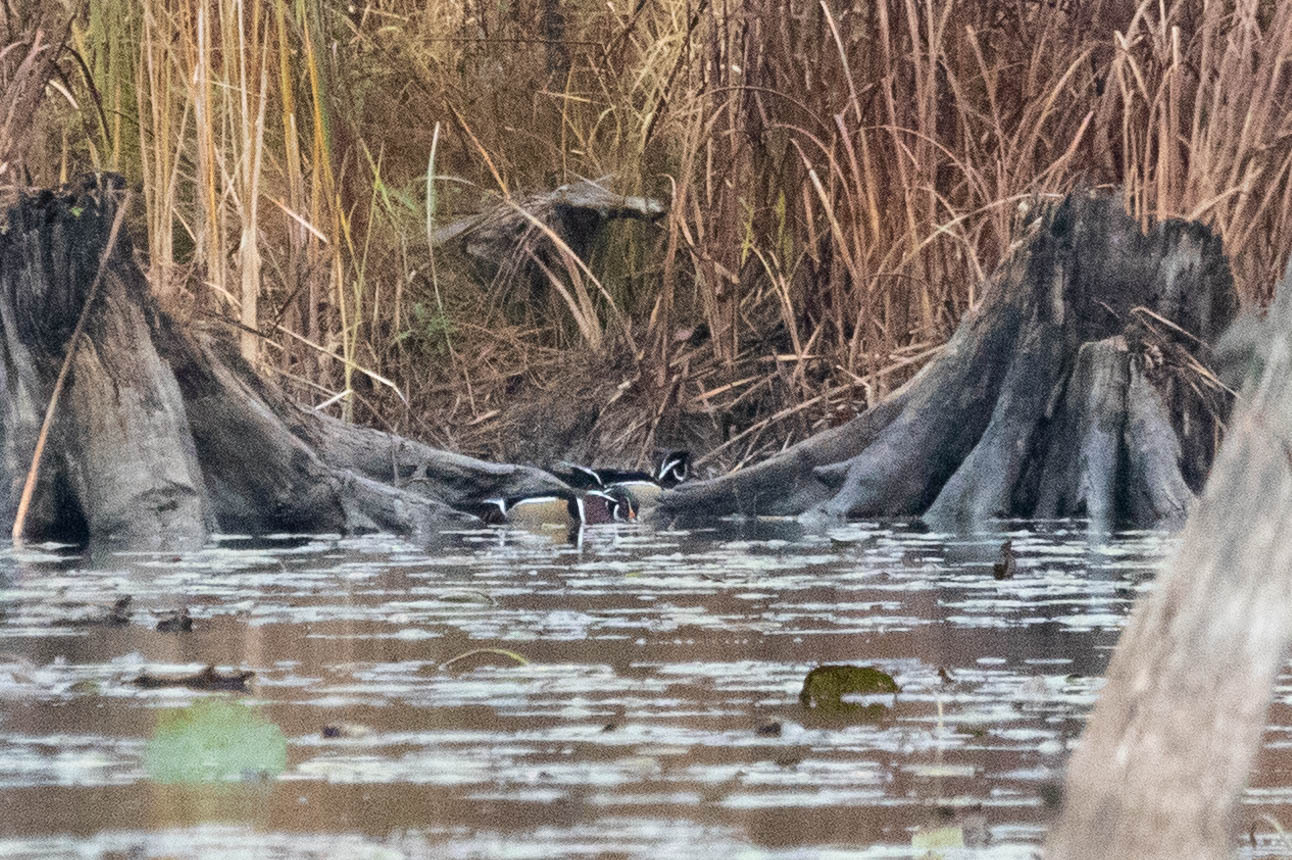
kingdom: Animalia
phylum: Chordata
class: Aves
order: Anseriformes
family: Anatidae
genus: Aix
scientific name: Aix sponsa
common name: Wood duck
